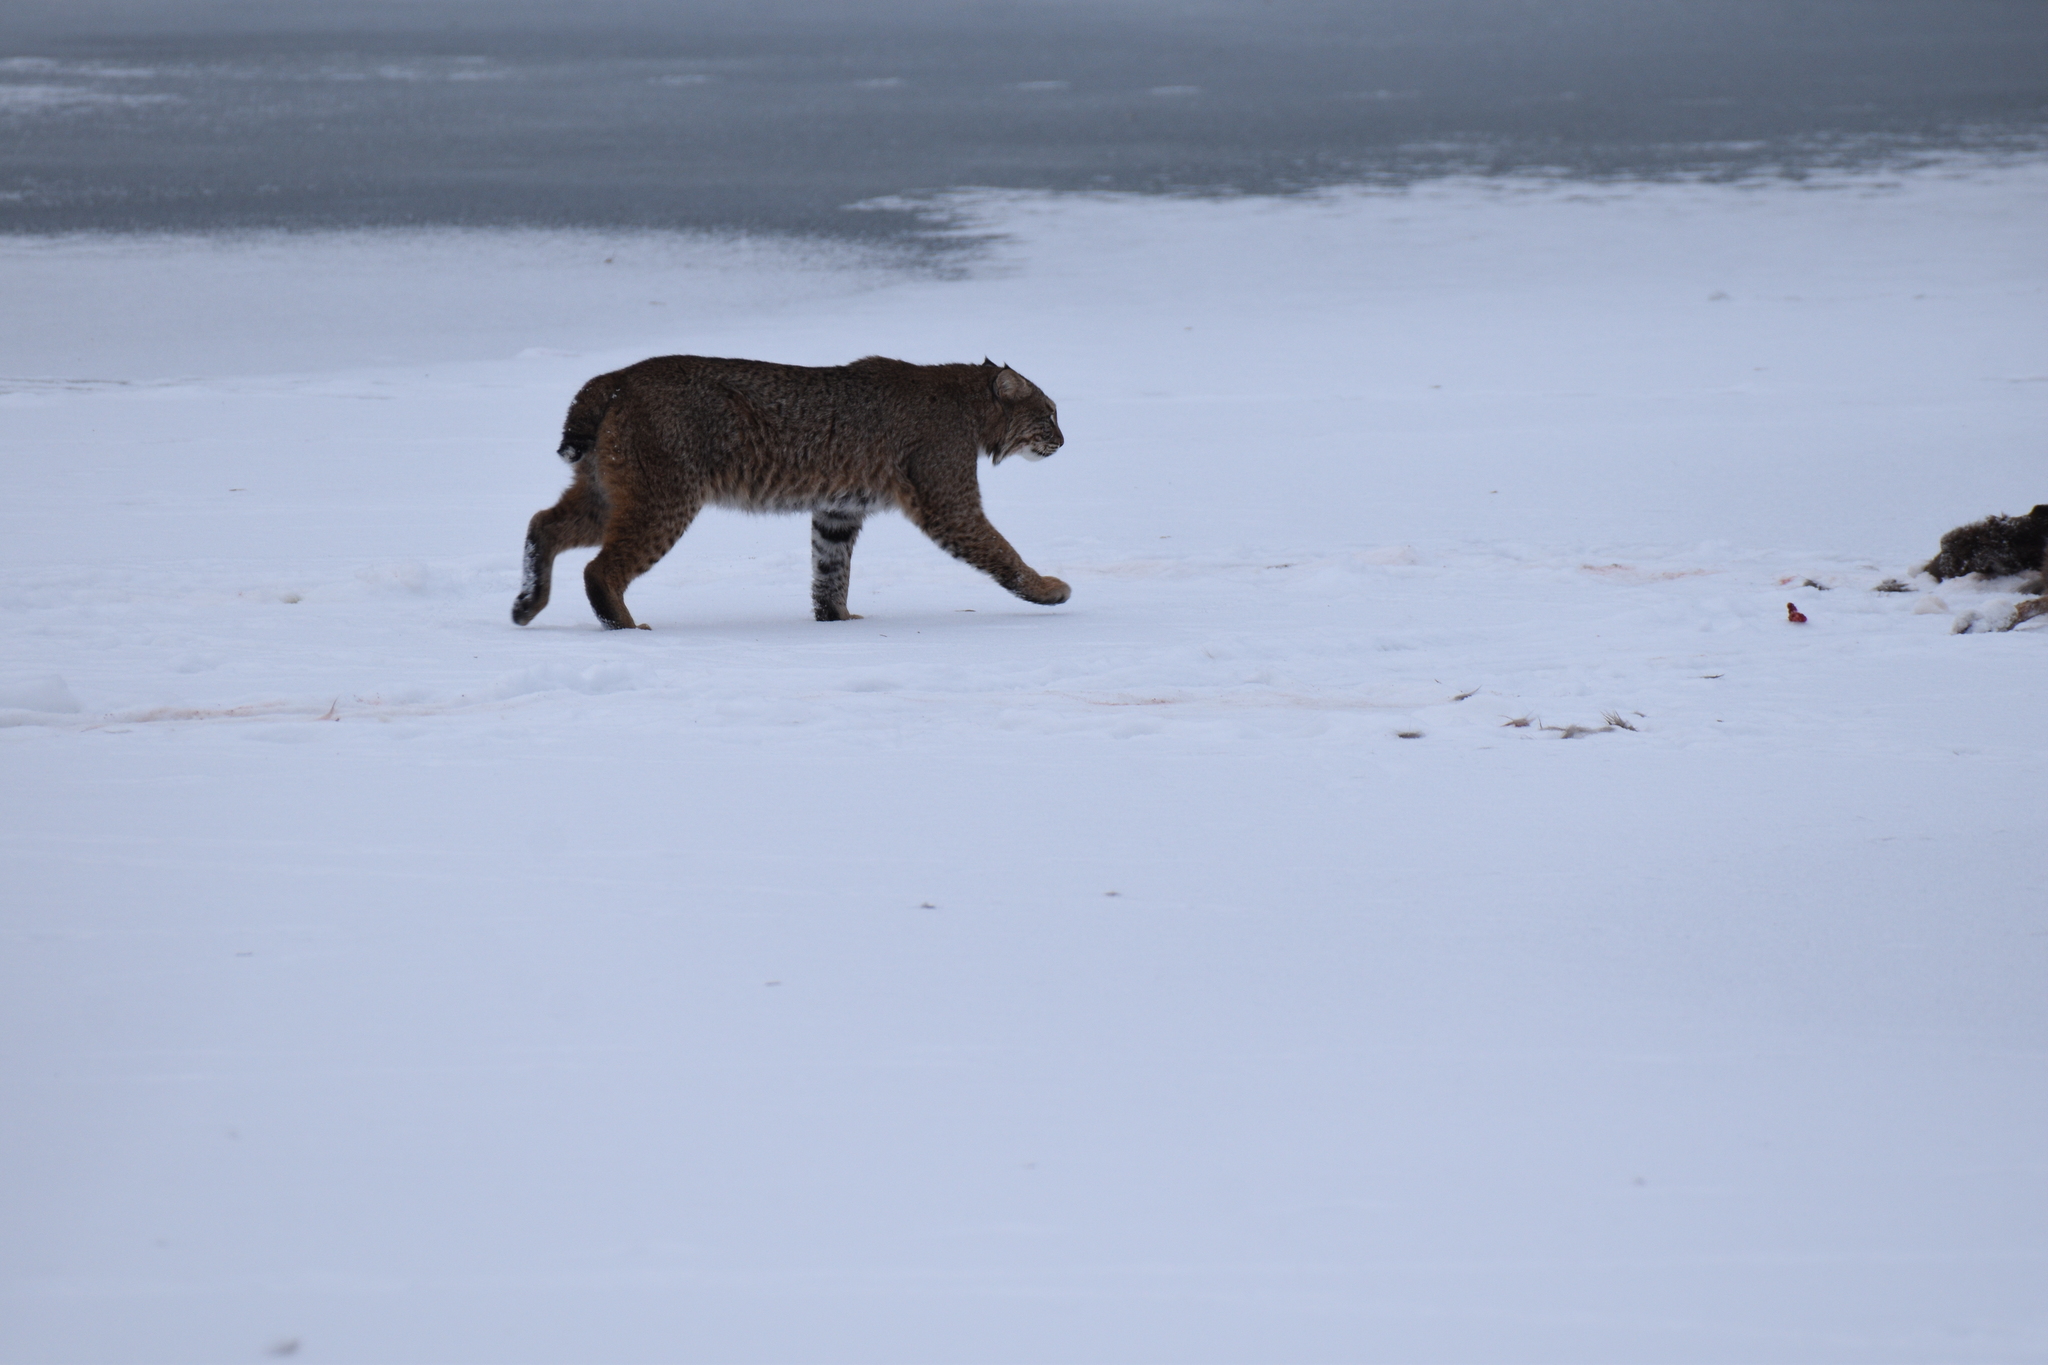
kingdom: Animalia
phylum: Chordata
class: Mammalia
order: Carnivora
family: Felidae
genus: Lynx
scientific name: Lynx rufus
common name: Bobcat
